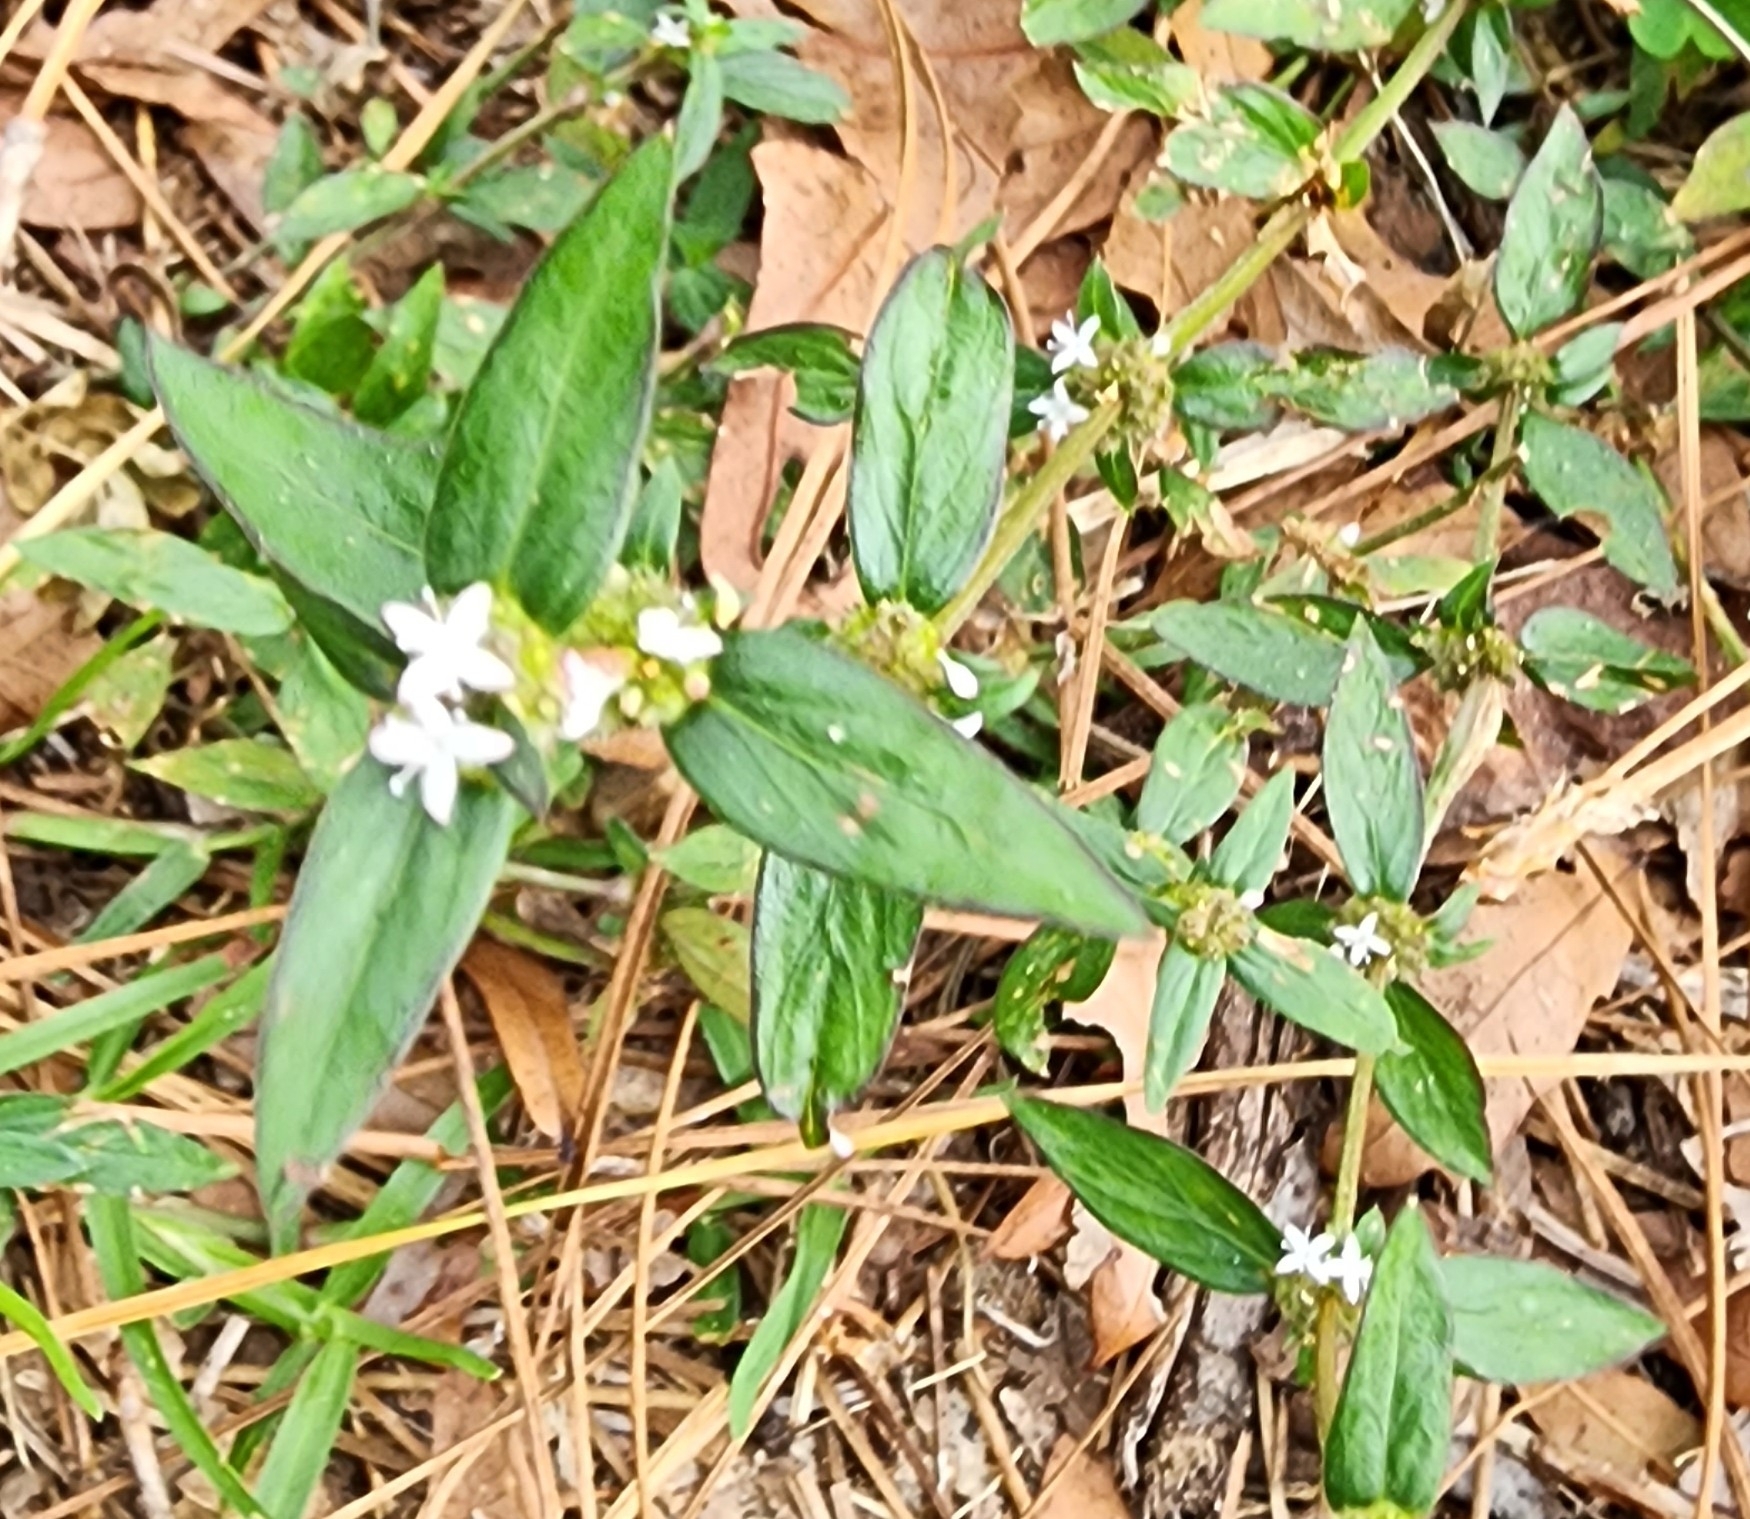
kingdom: Plantae
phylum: Tracheophyta
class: Magnoliopsida
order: Gentianales
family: Rubiaceae
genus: Spermacoce
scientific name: Spermacoce remota
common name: Woodland false buttonweed
